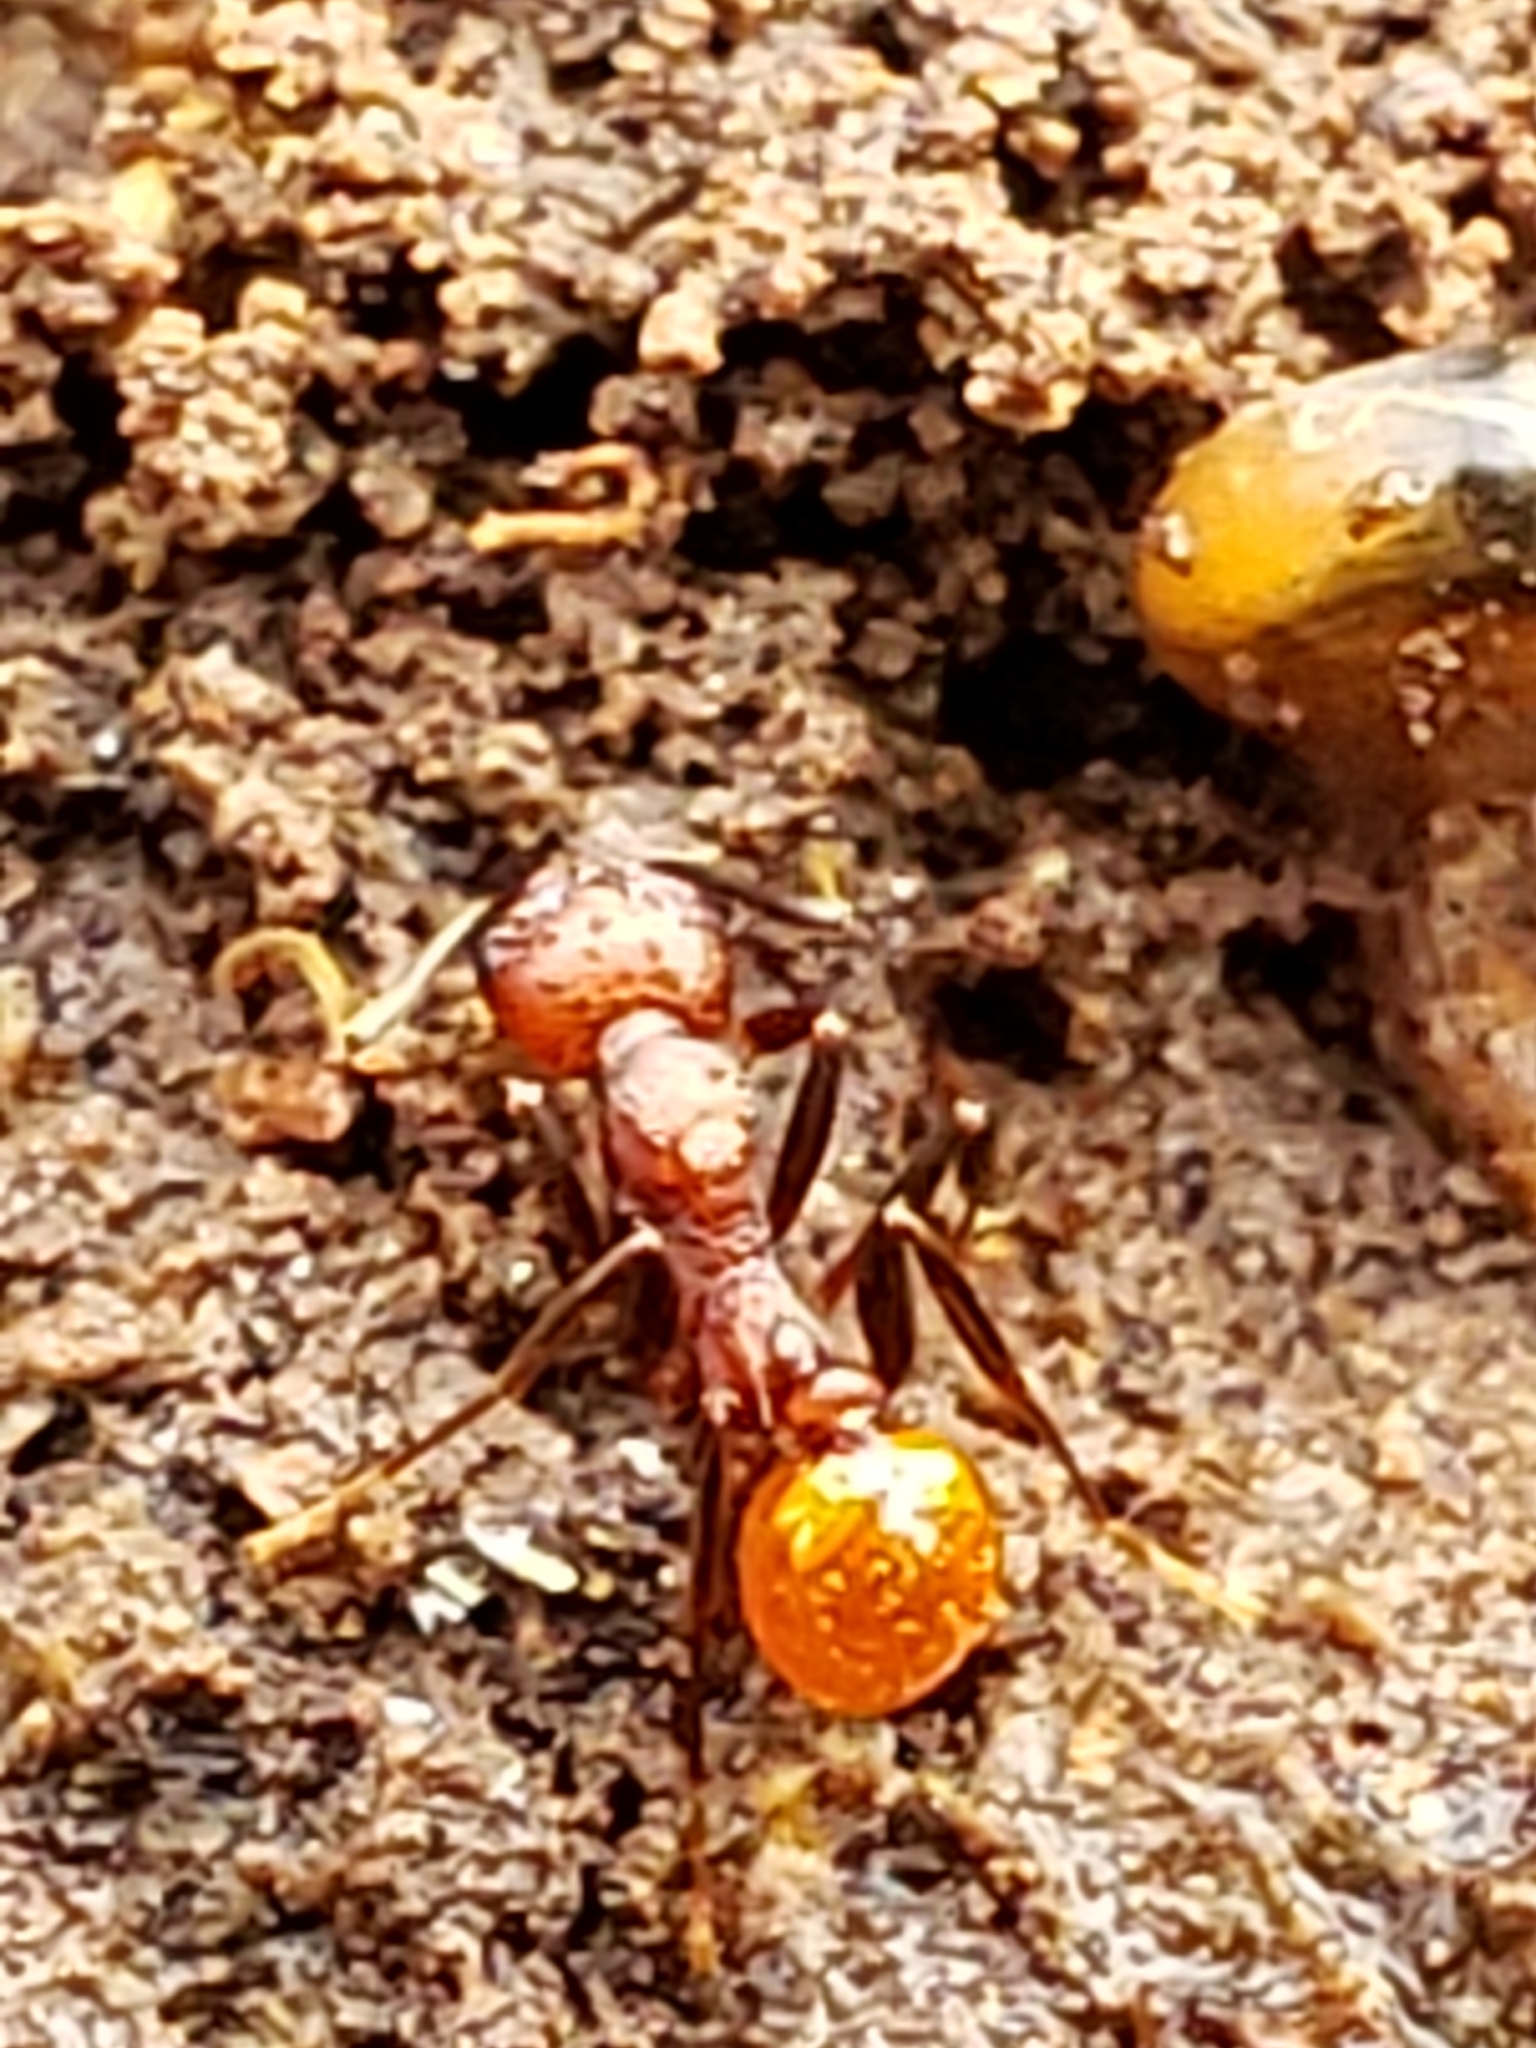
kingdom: Animalia
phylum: Arthropoda
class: Insecta
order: Hymenoptera
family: Formicidae
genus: Aphaenogaster
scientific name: Aphaenogaster tennesseensis
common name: Tennessee thread-waisted ant
